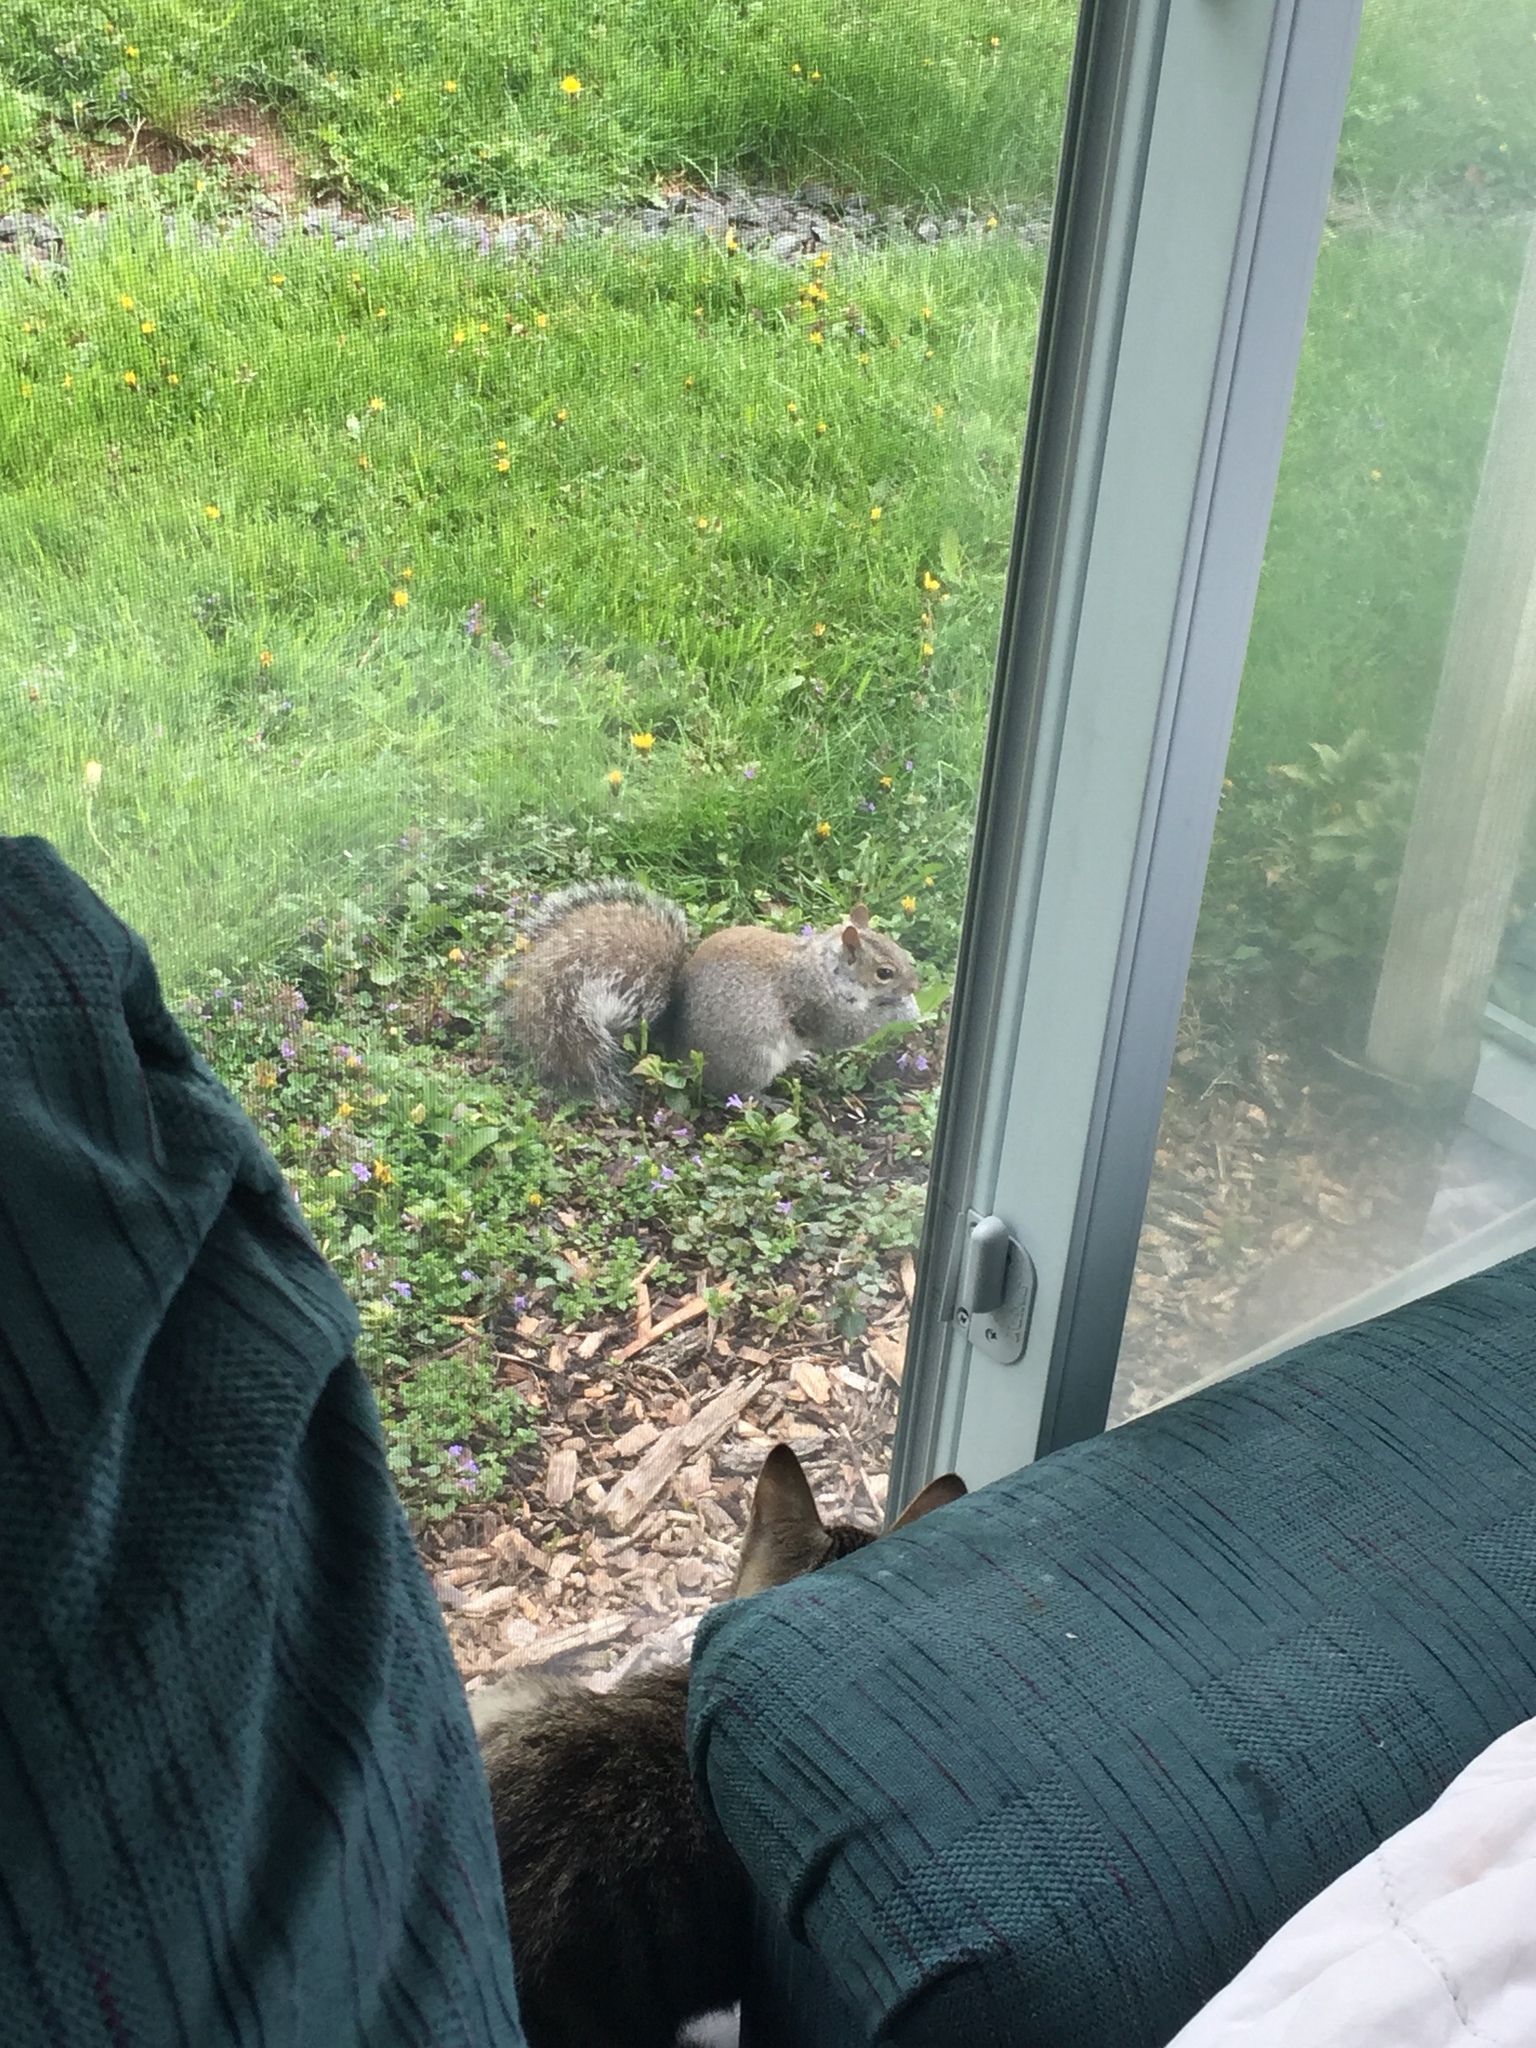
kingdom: Animalia
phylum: Chordata
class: Mammalia
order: Rodentia
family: Sciuridae
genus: Sciurus
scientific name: Sciurus carolinensis
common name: Eastern gray squirrel
